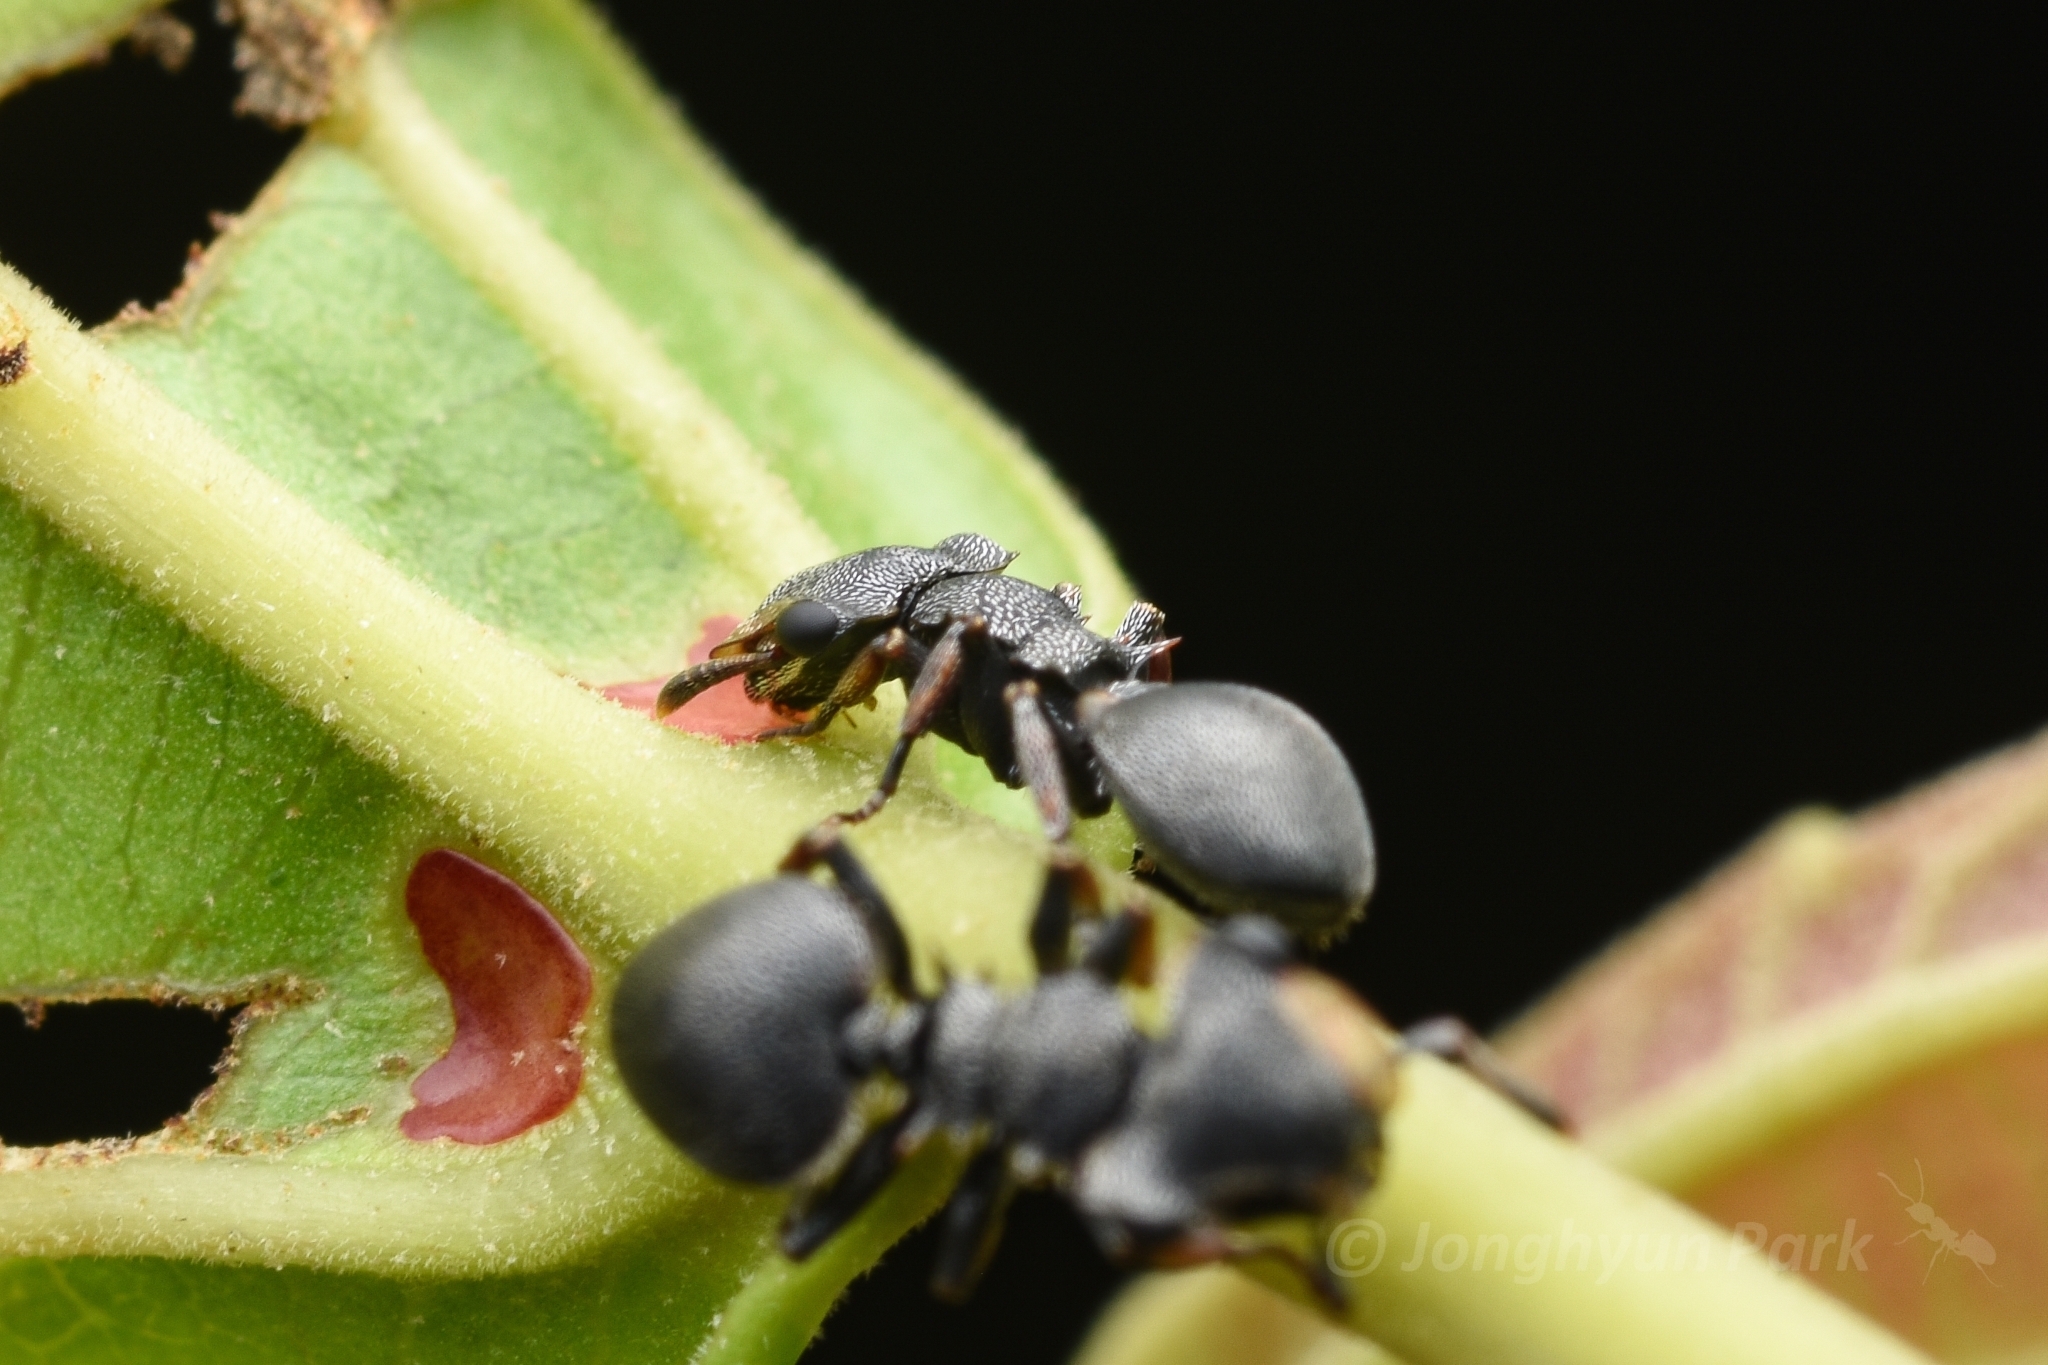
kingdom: Animalia
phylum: Arthropoda
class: Insecta
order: Hymenoptera
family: Formicidae
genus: Cephalotes
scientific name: Cephalotes inaequalis
